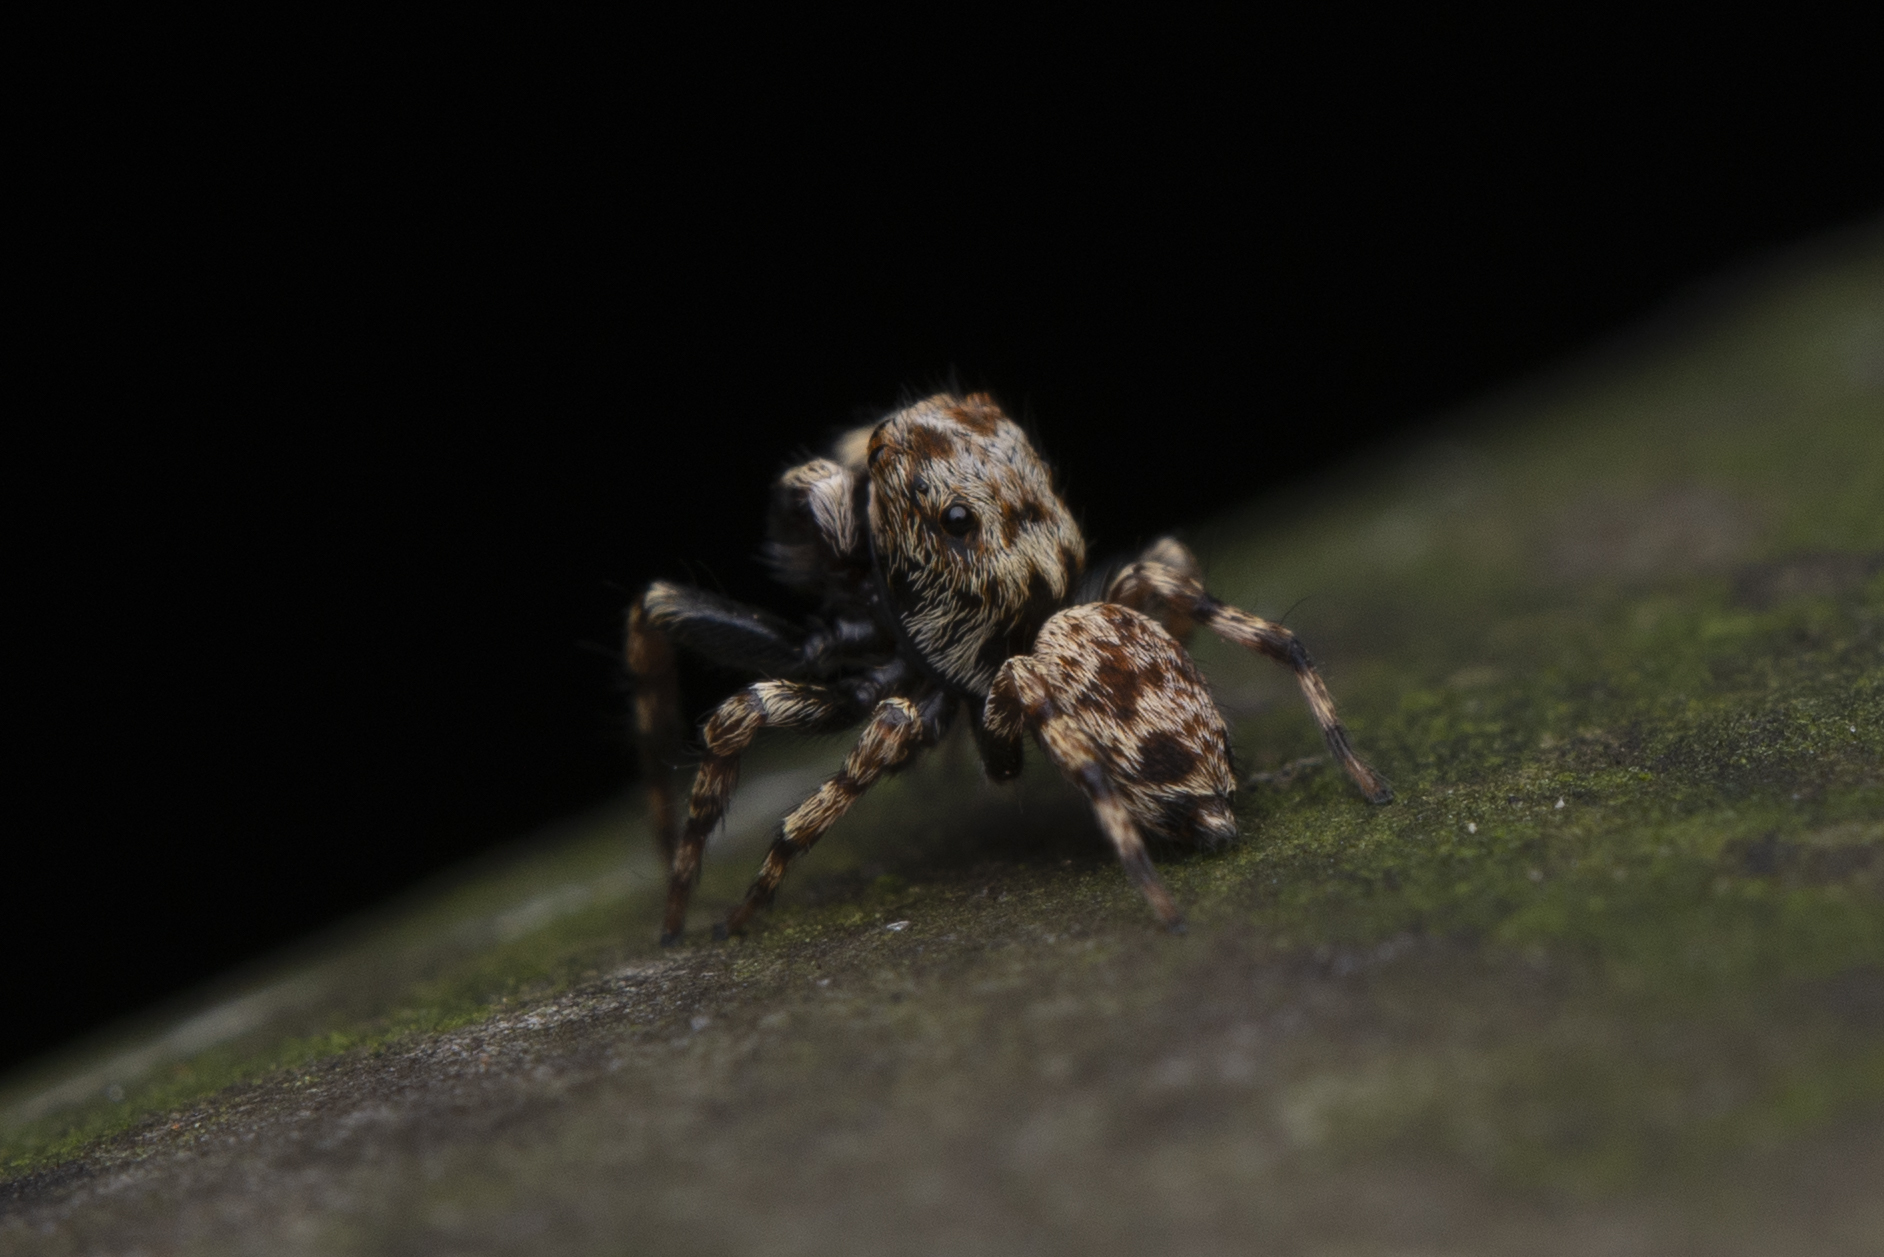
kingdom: Animalia
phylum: Arthropoda
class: Arachnida
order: Araneae
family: Salticidae
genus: Habrocestum
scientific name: Habrocestum hongkongiense
